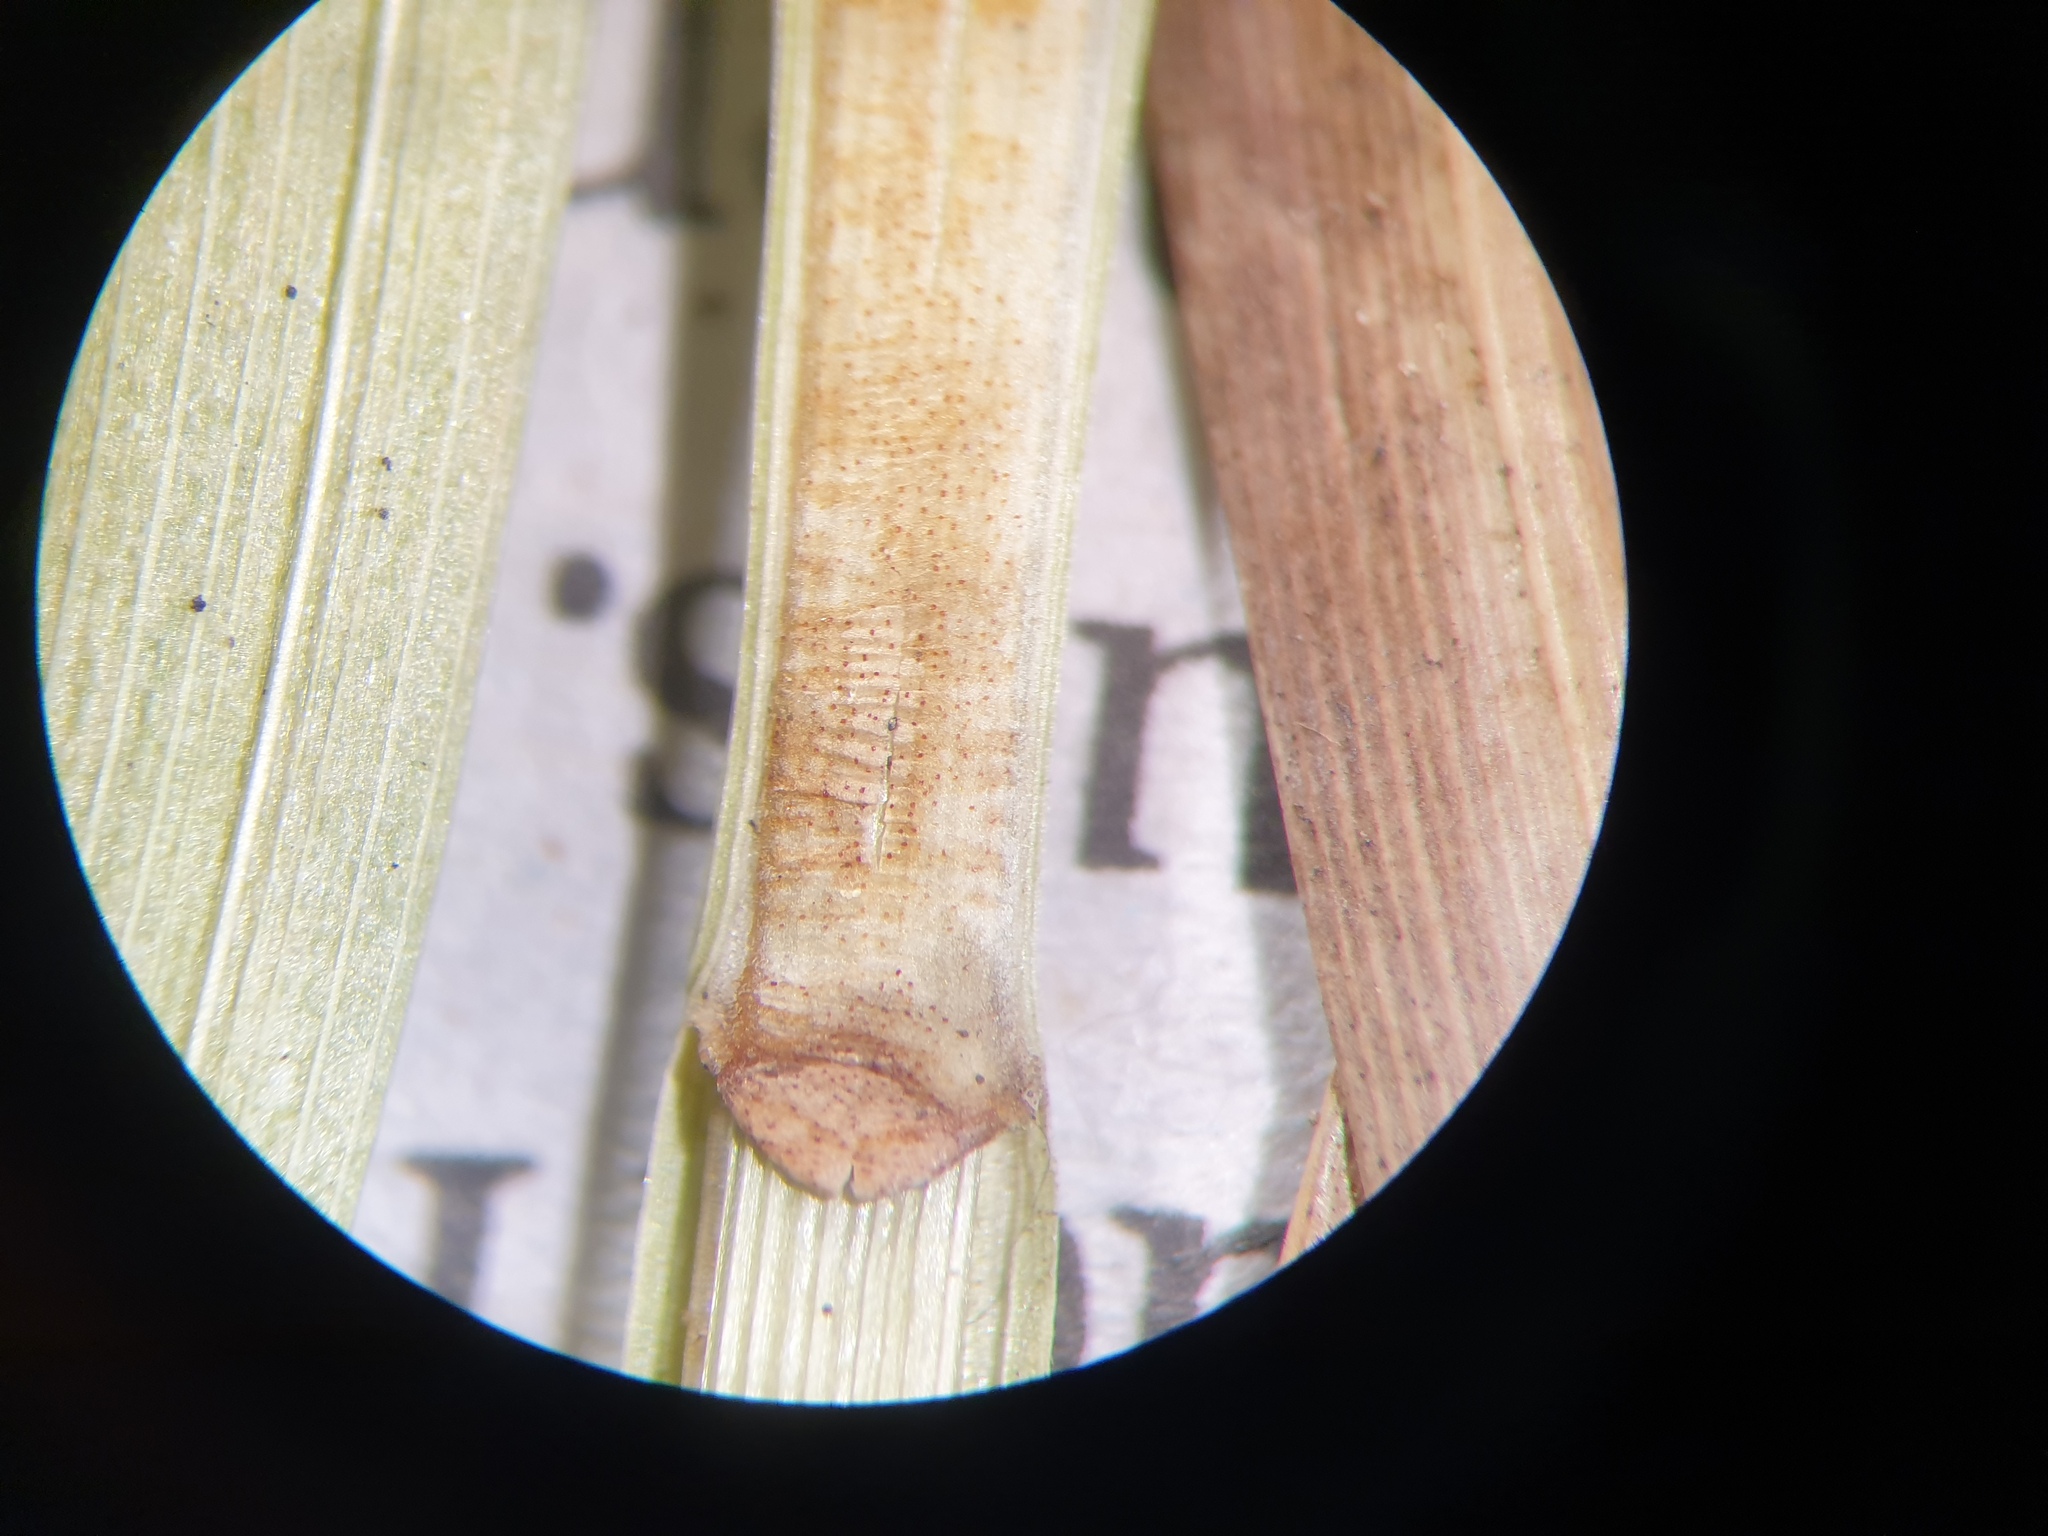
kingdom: Plantae
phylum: Tracheophyta
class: Liliopsida
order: Poales
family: Cyperaceae
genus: Carex
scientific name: Carex vulpinoidea
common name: American fox-sedge
